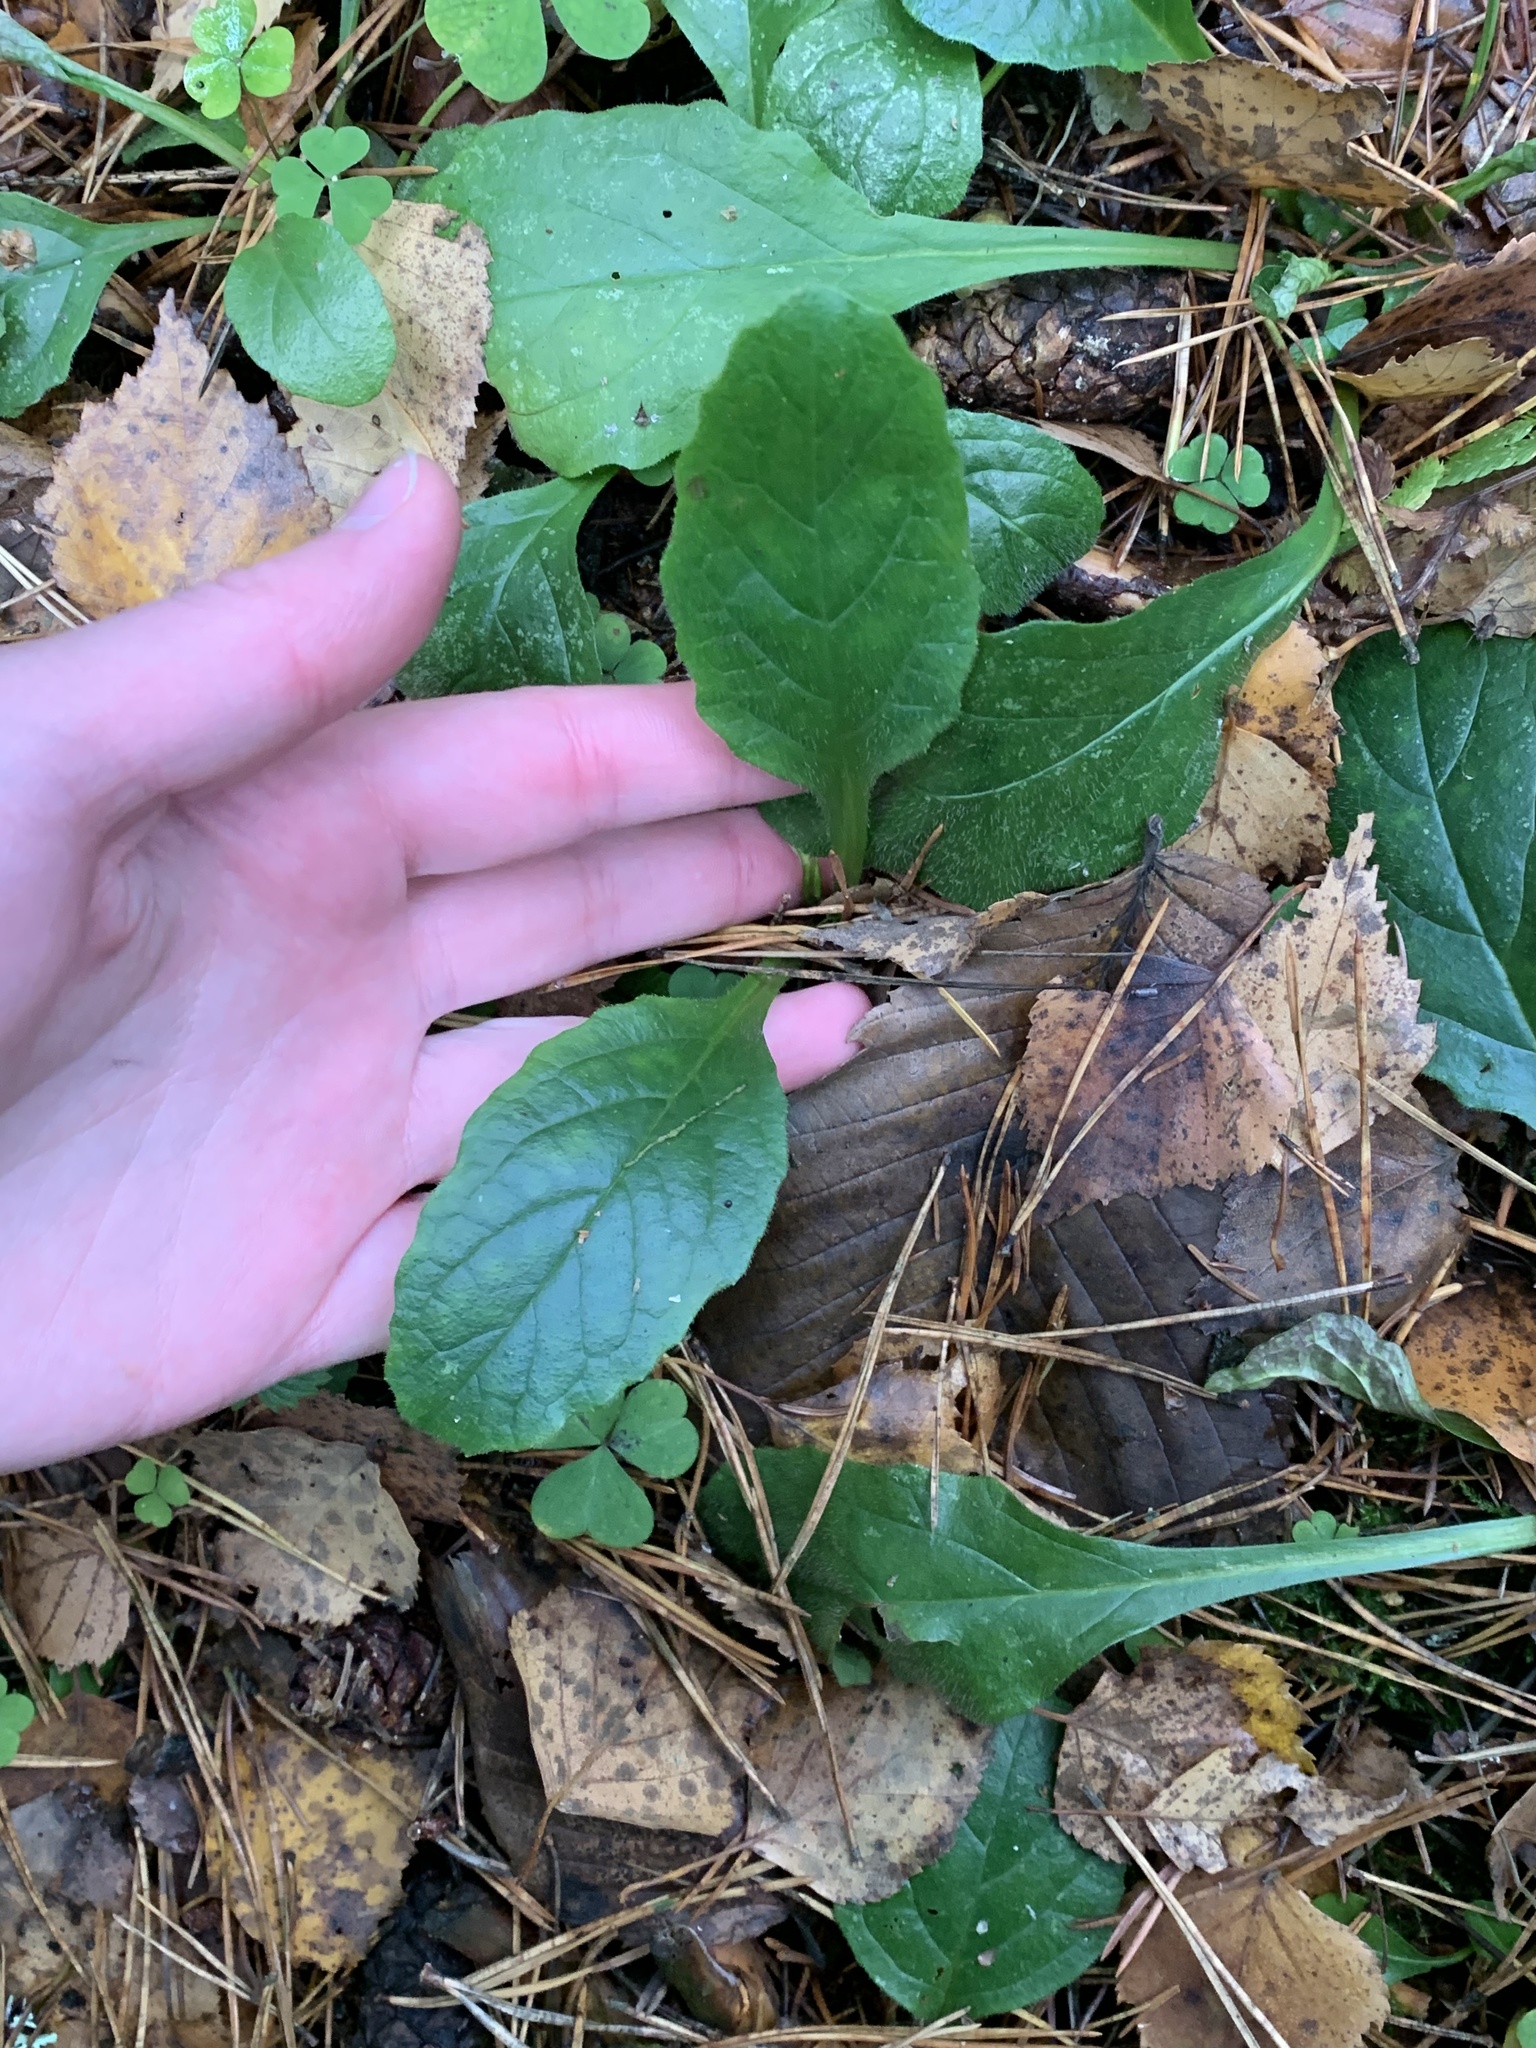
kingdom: Plantae
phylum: Tracheophyta
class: Magnoliopsida
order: Lamiales
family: Lamiaceae
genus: Ajuga
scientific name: Ajuga reptans
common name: Bugle
